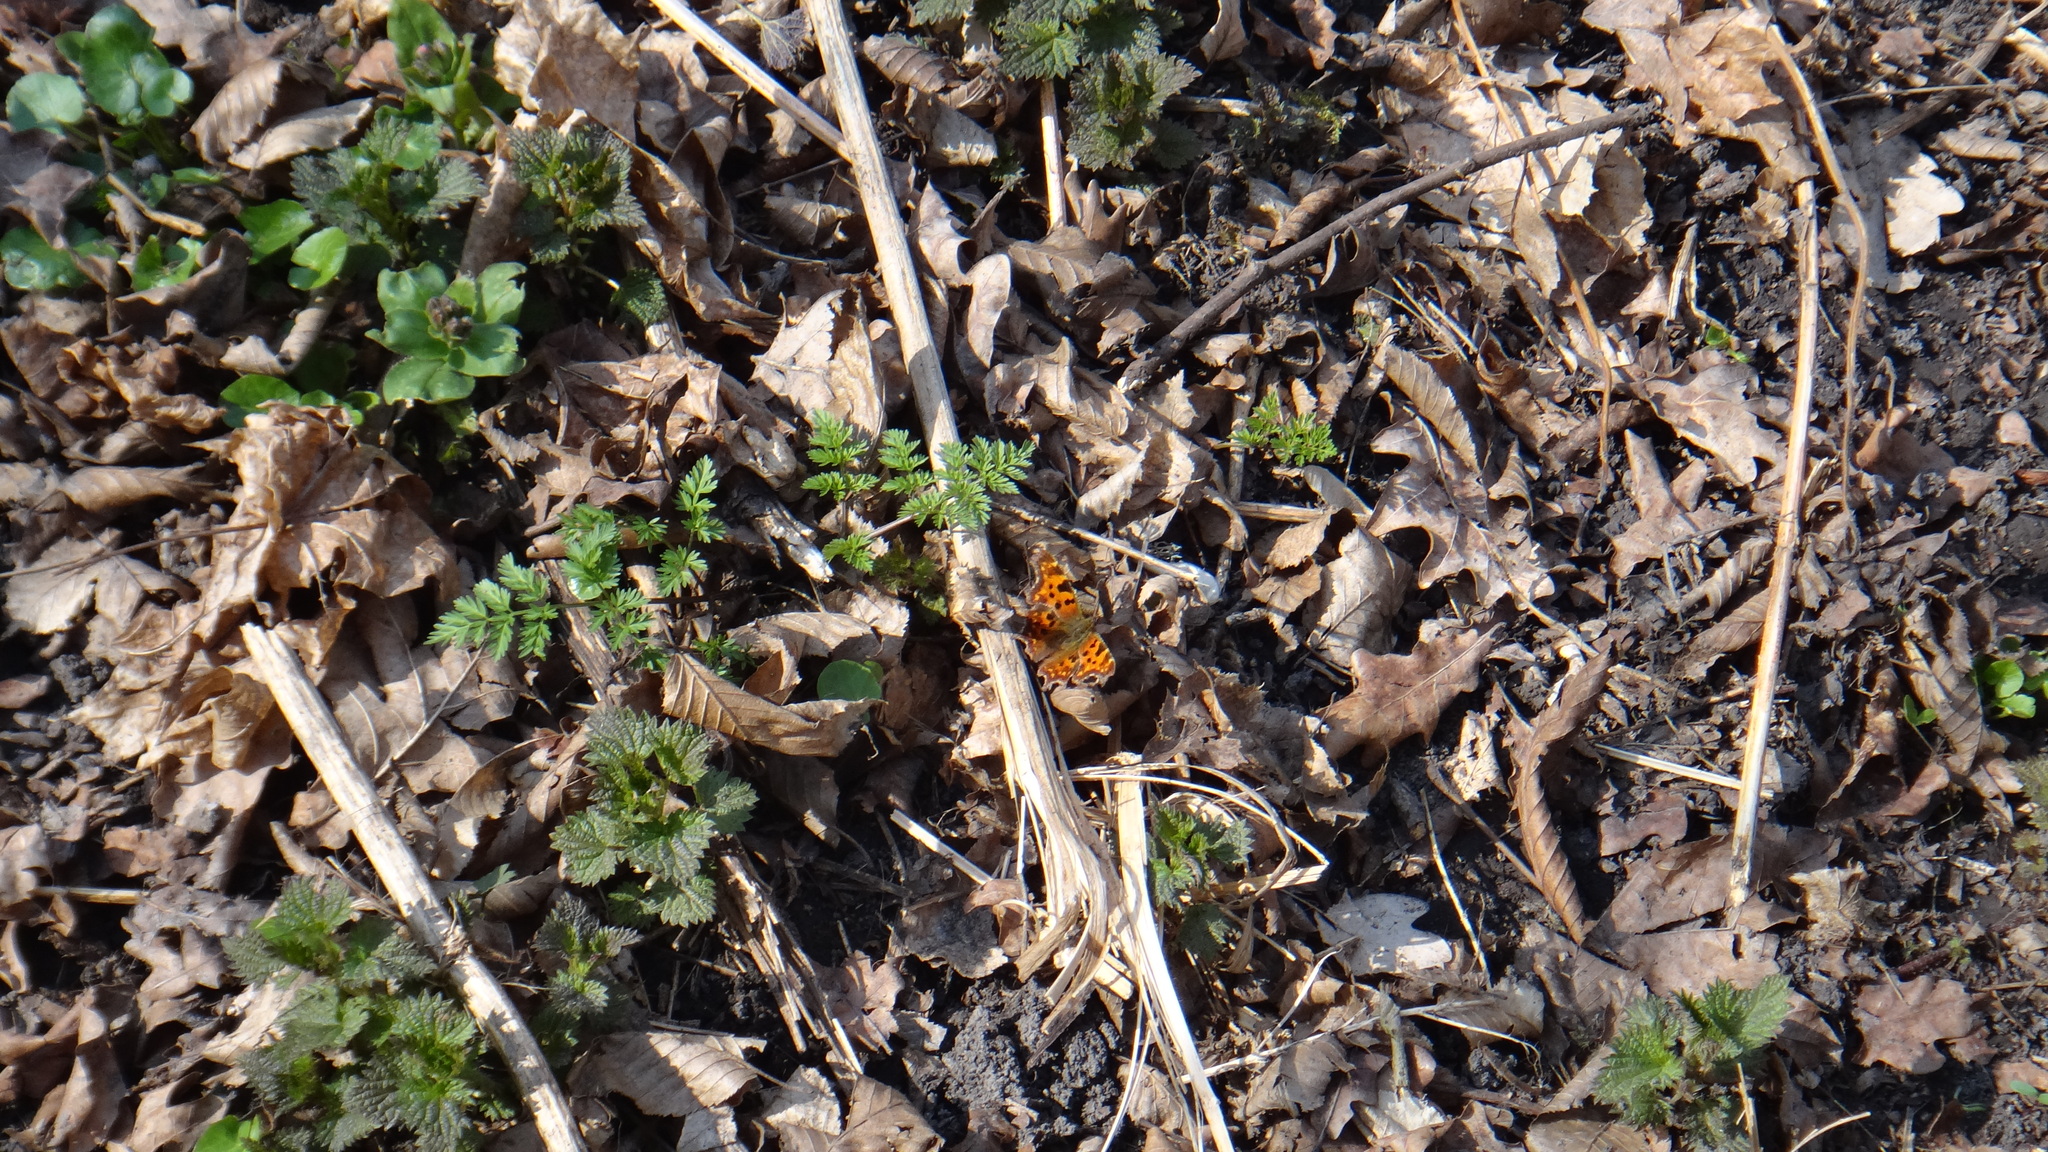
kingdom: Animalia
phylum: Arthropoda
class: Insecta
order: Lepidoptera
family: Nymphalidae
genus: Polygonia
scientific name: Polygonia c-album
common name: Comma
